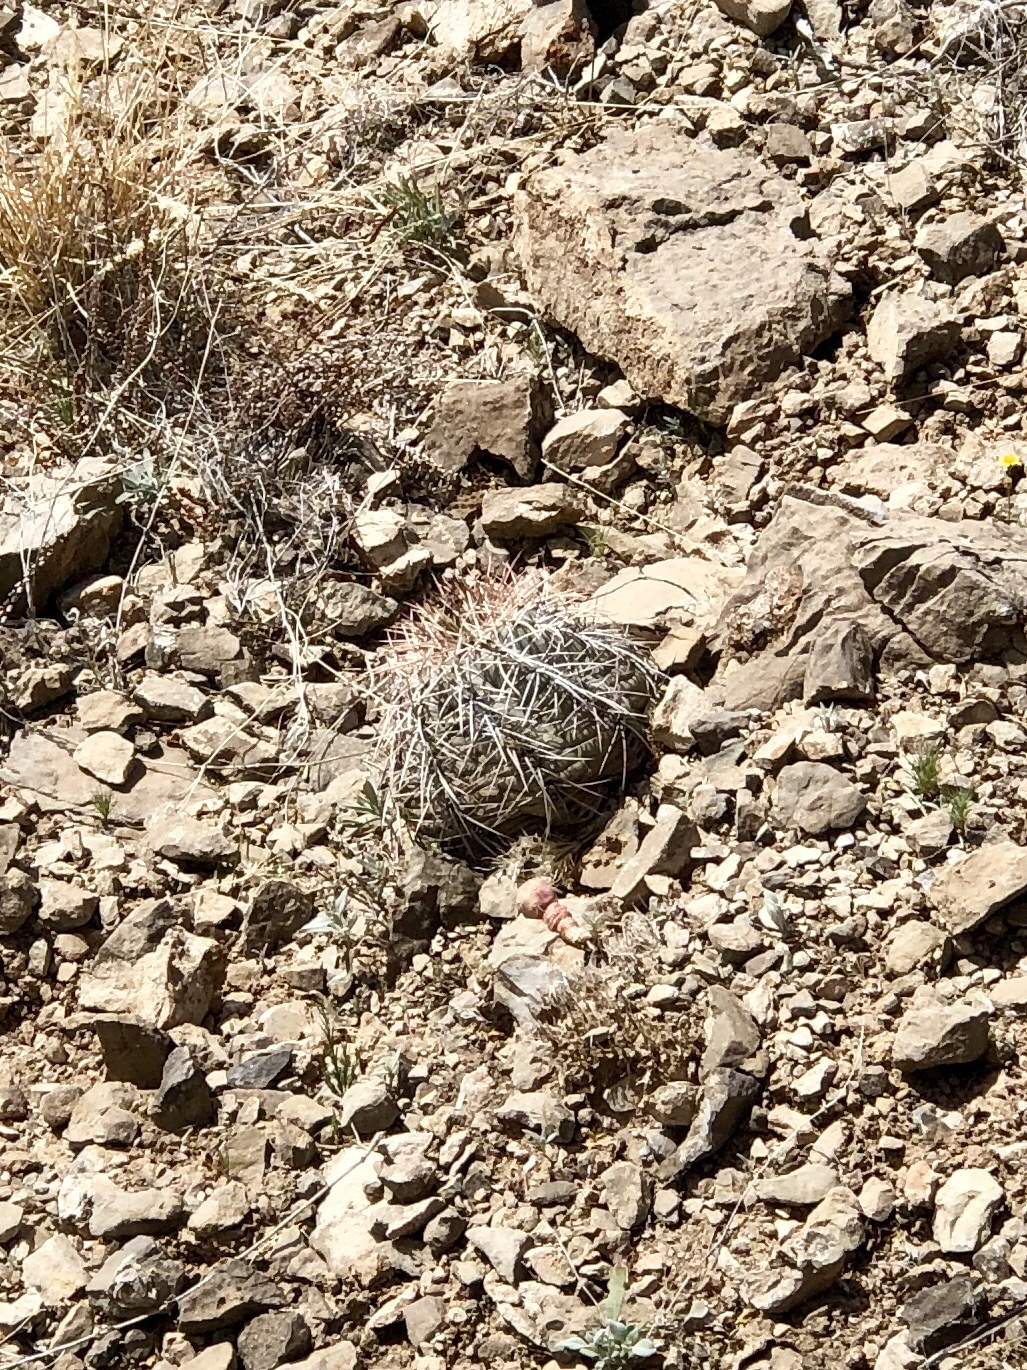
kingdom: Plantae
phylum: Tracheophyta
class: Magnoliopsida
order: Caryophyllales
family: Cactaceae
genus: Echinocactus
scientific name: Echinocactus horizonthalonius
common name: Devilshead
